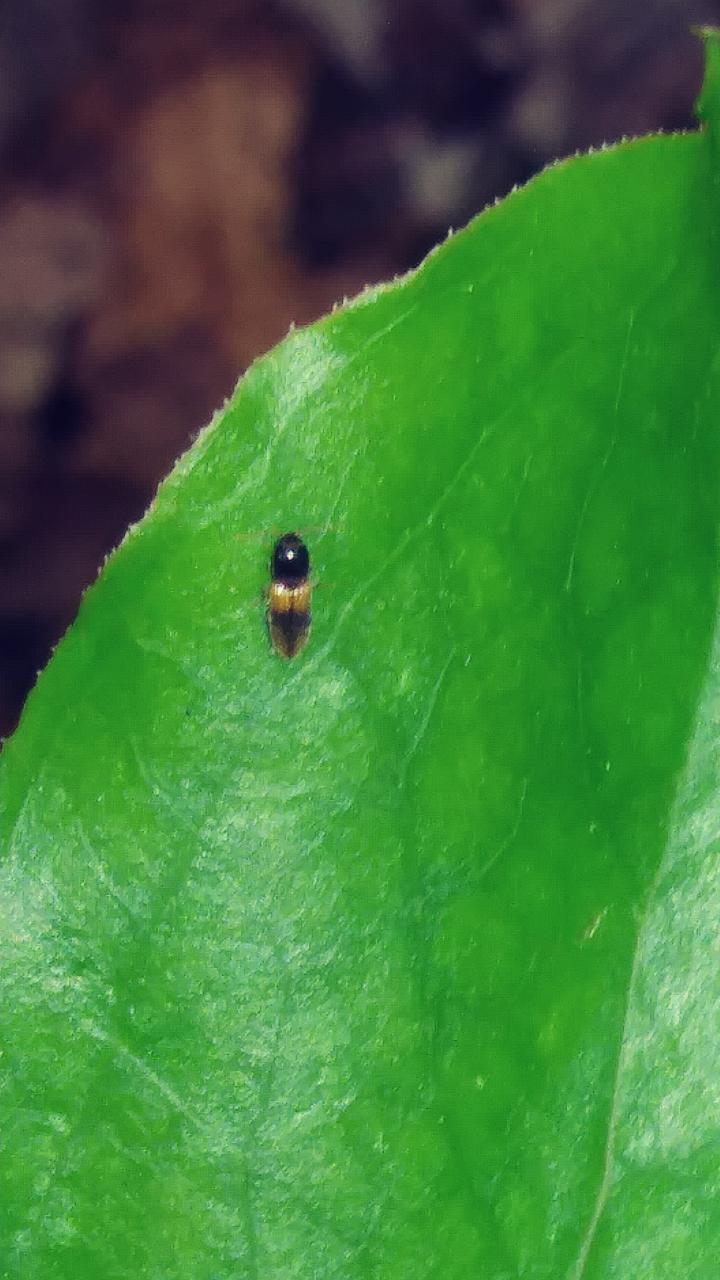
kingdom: Animalia
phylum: Arthropoda
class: Insecta
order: Coleoptera
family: Elateridae
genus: Horistonotus
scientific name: Horistonotus curiatus
